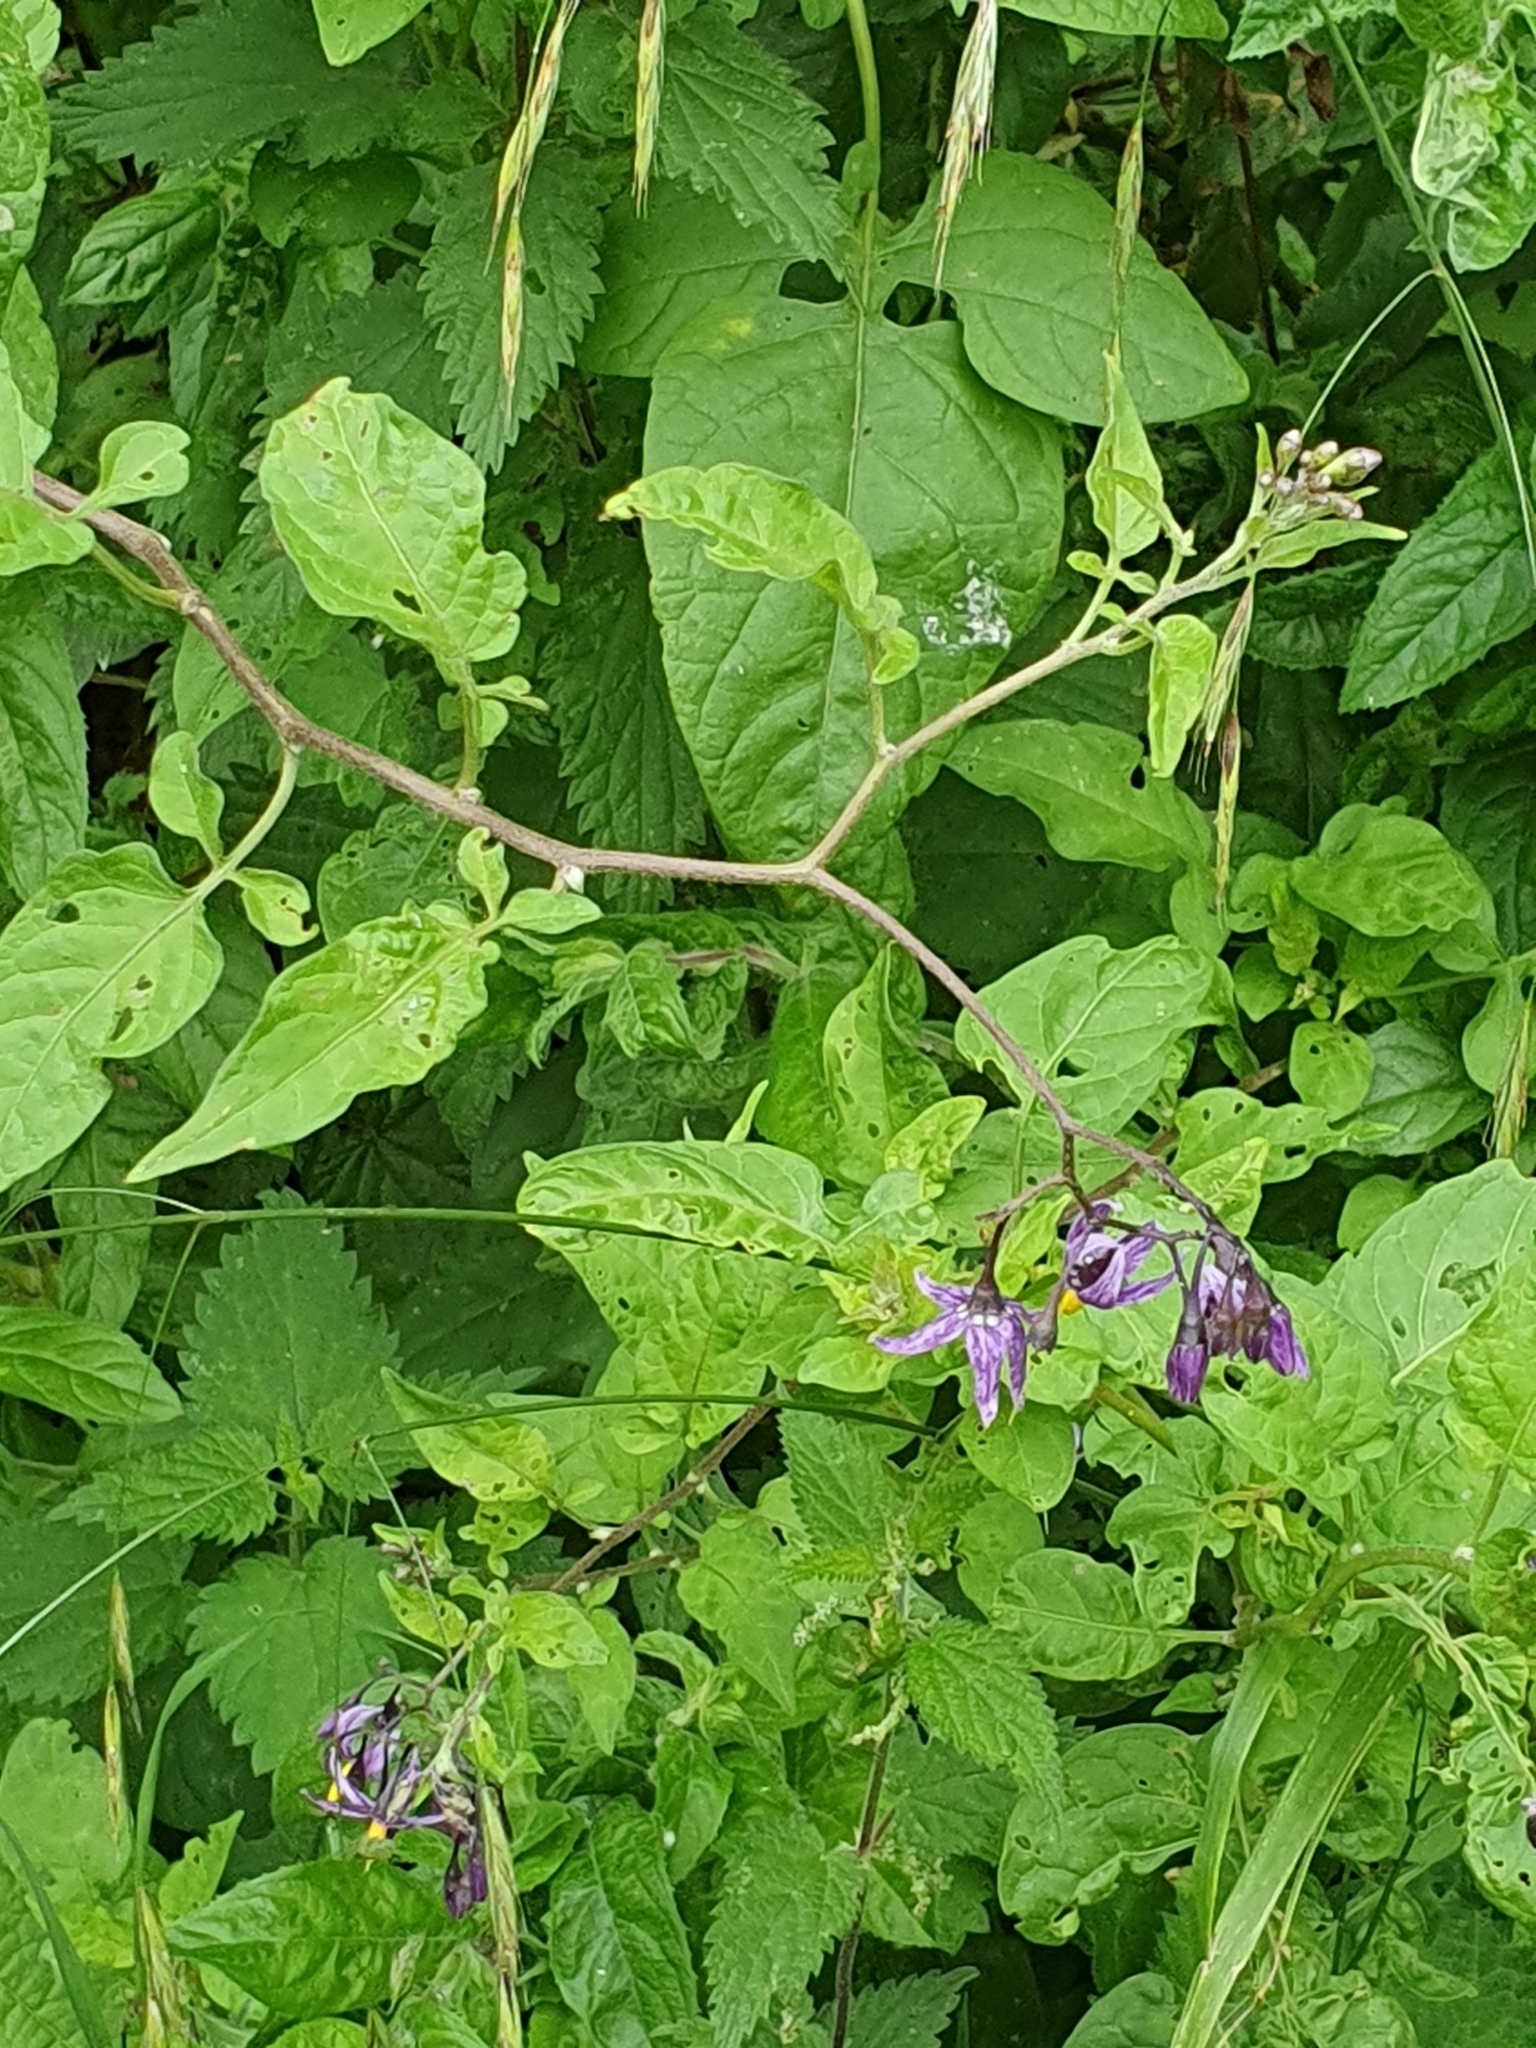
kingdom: Plantae
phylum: Tracheophyta
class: Magnoliopsida
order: Solanales
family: Solanaceae
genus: Solanum
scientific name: Solanum dulcamara
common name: Climbing nightshade
